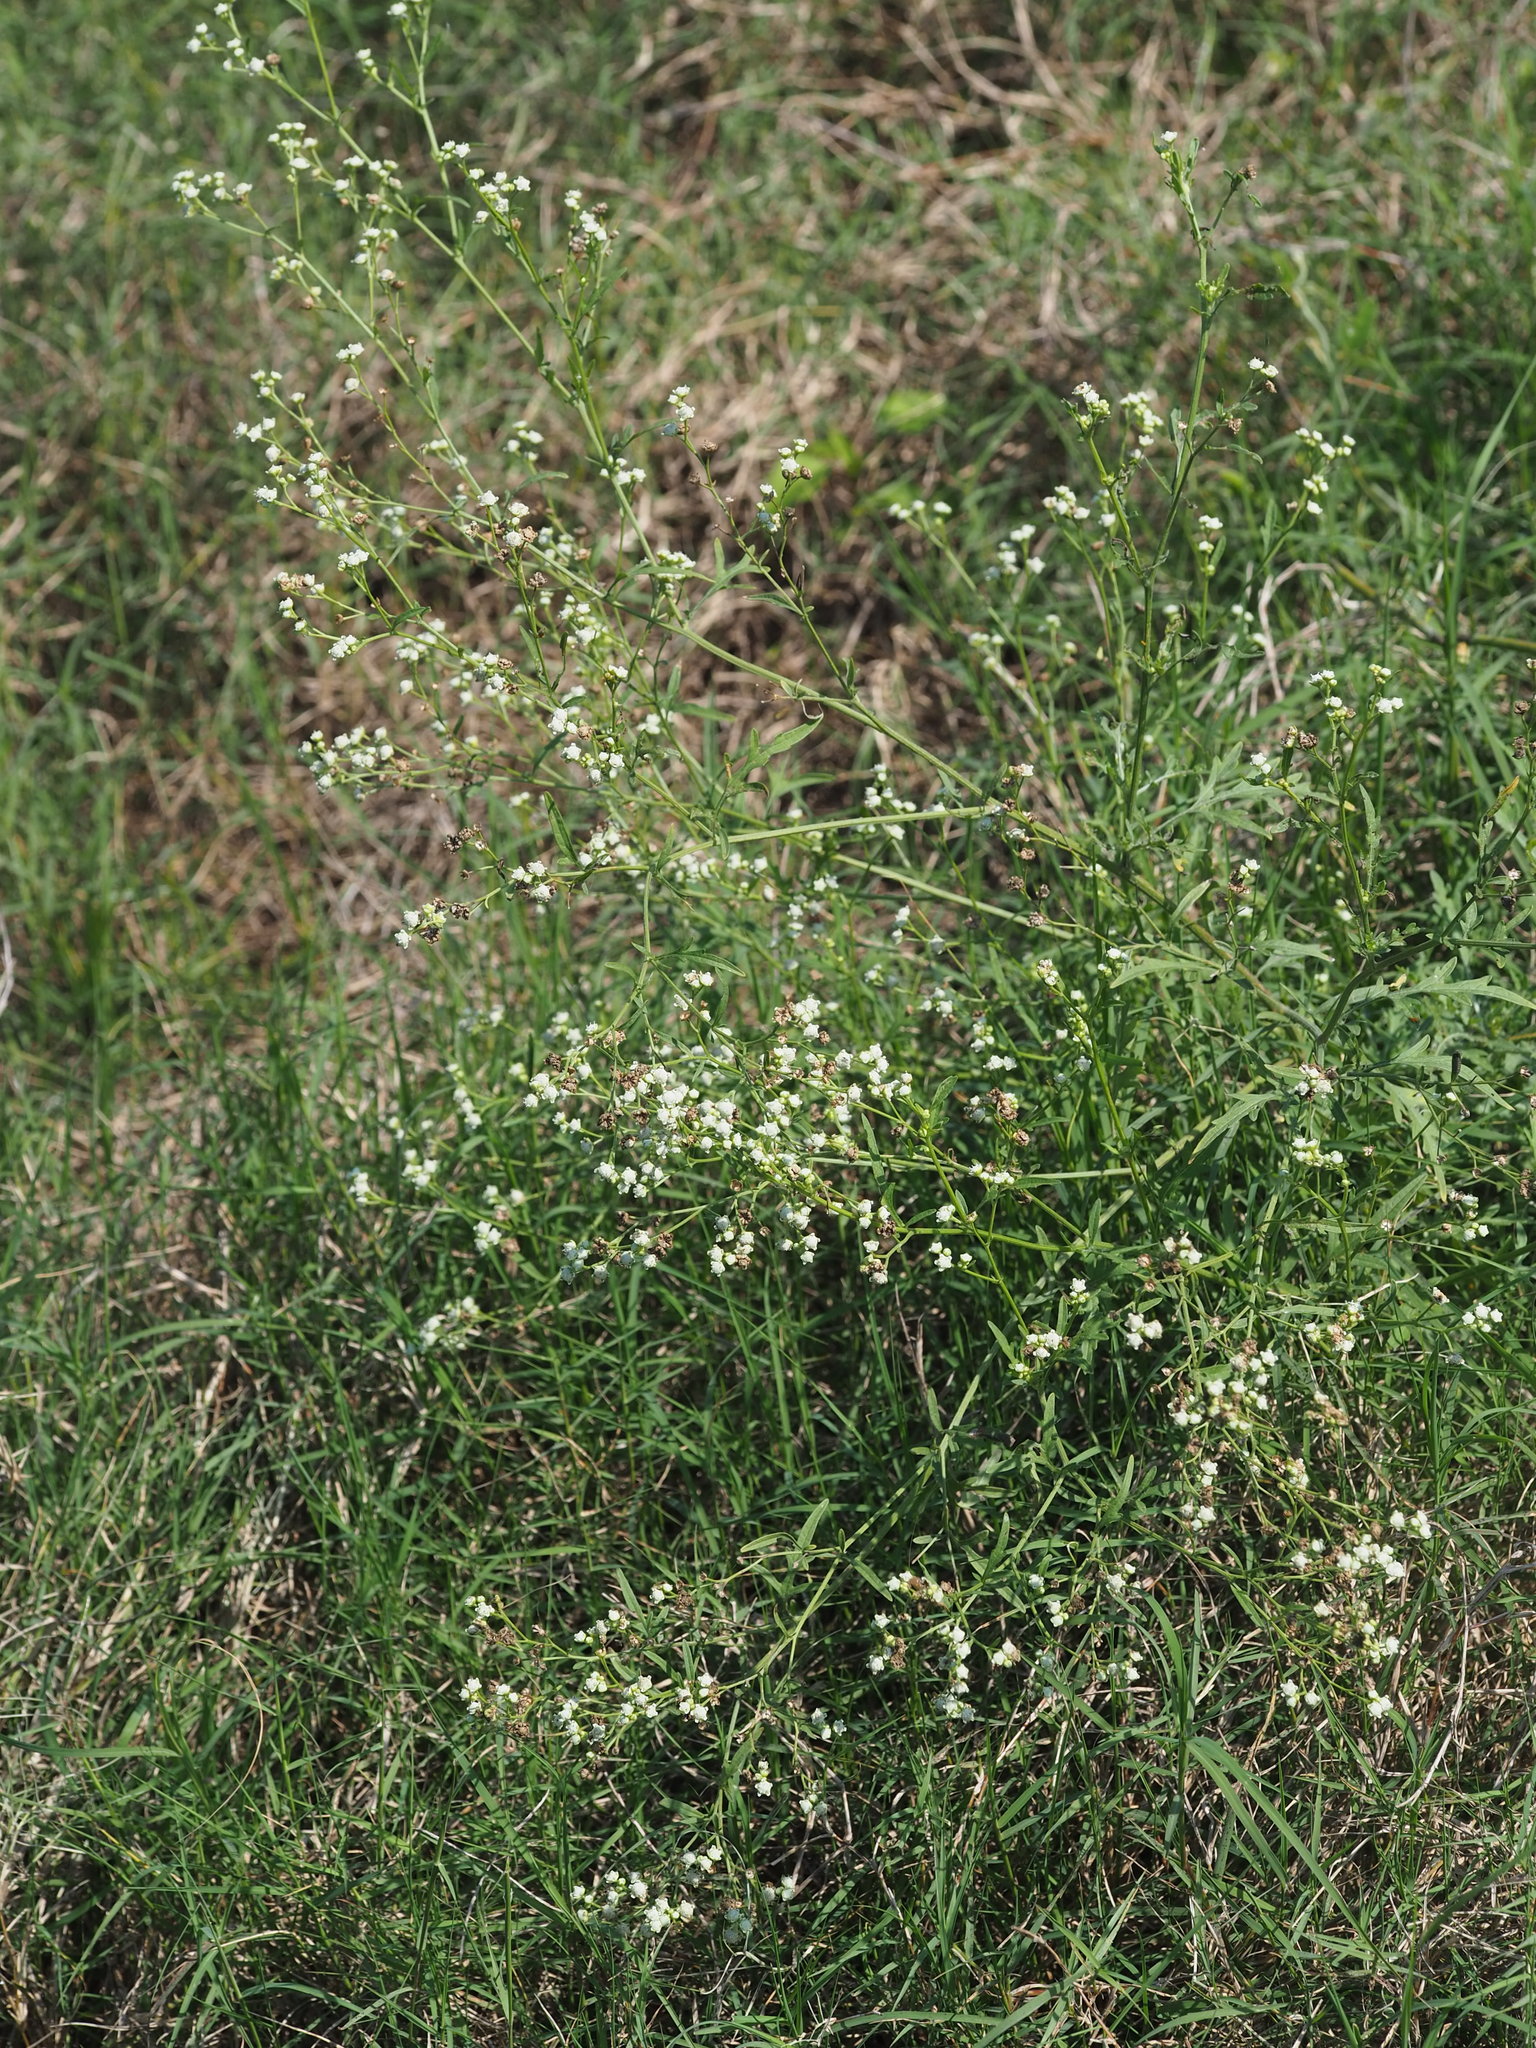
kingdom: Plantae
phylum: Tracheophyta
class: Magnoliopsida
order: Asterales
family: Asteraceae
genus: Parthenium
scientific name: Parthenium hysterophorus
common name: Santa maria feverfew
